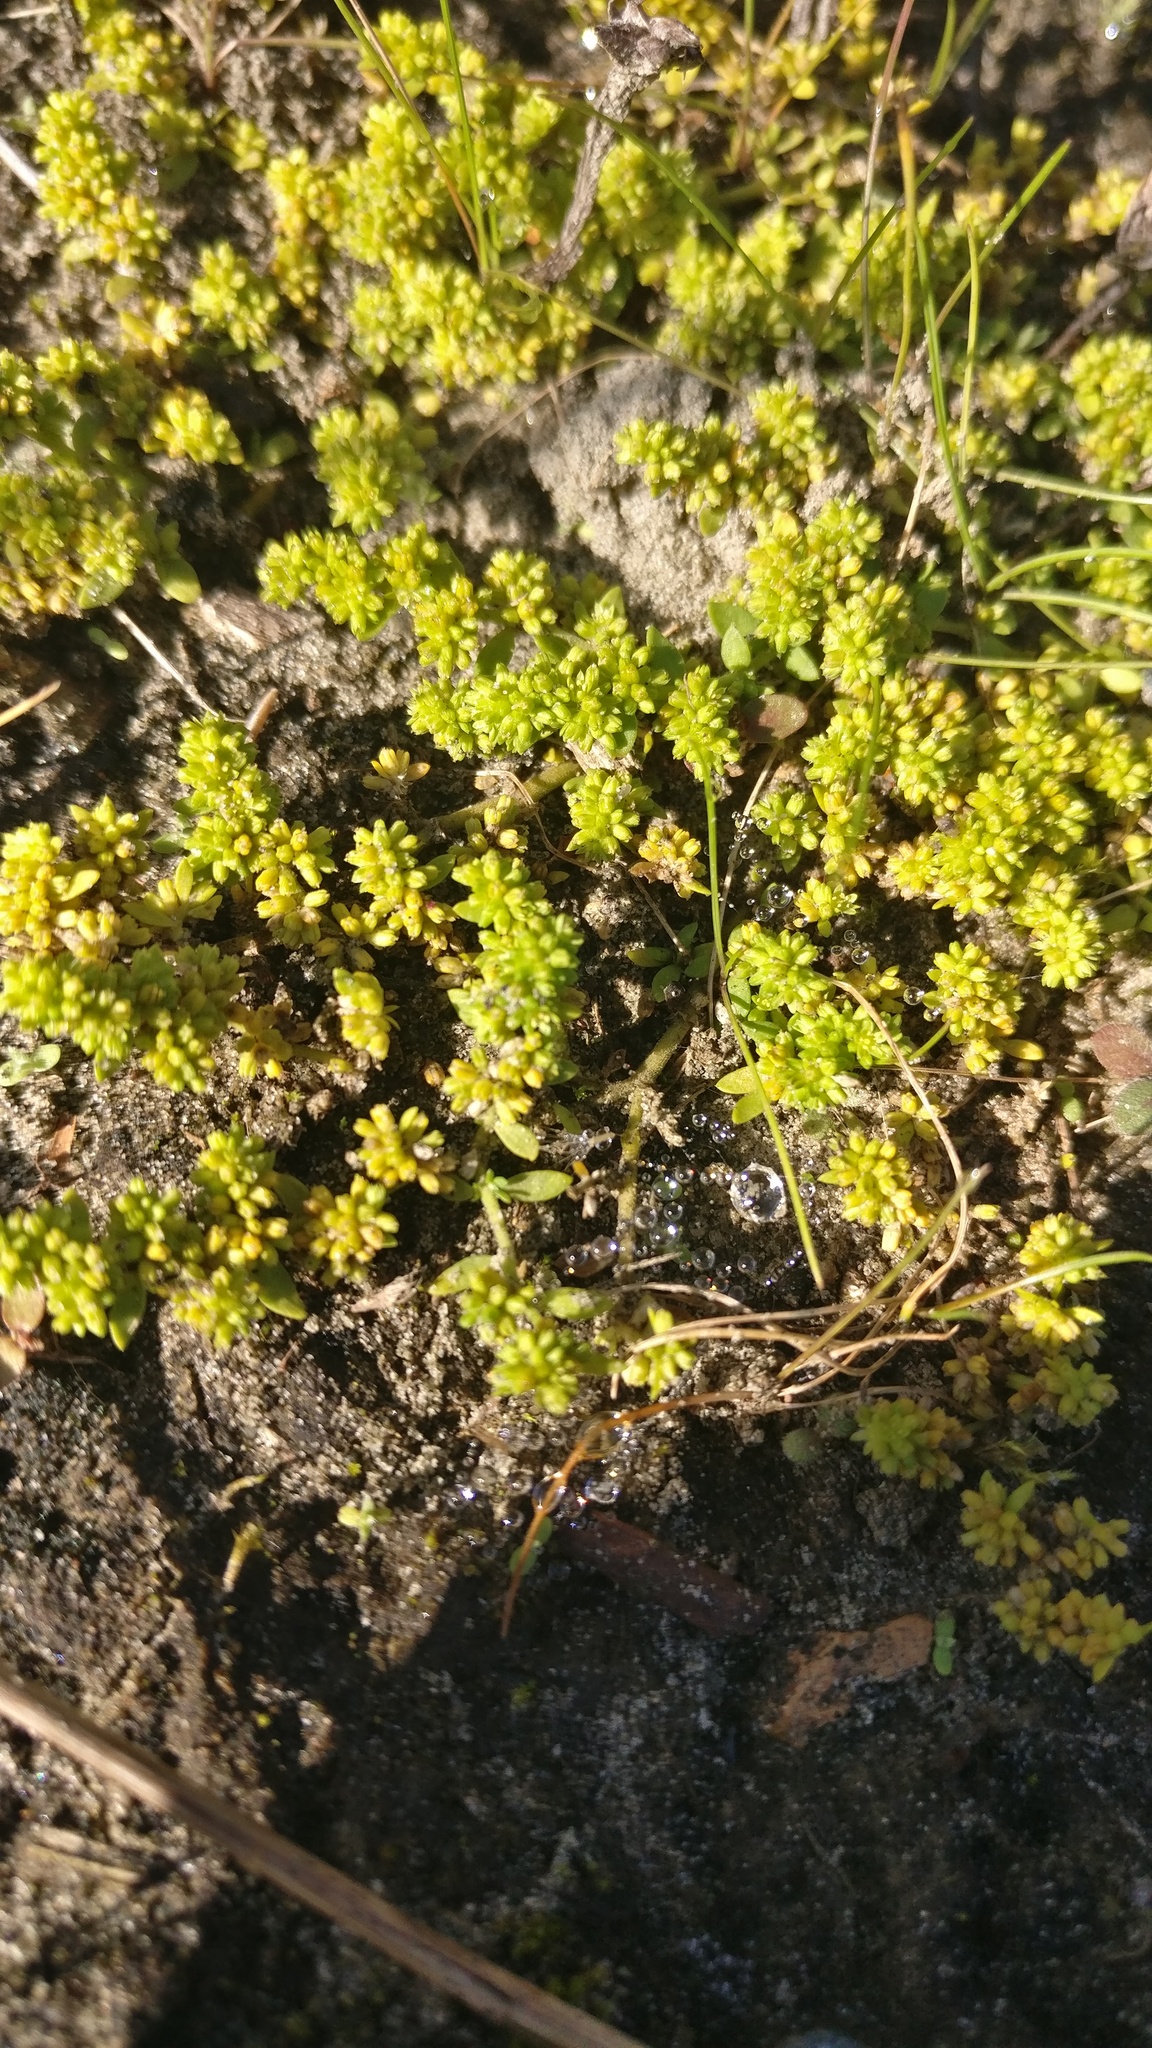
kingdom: Plantae
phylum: Tracheophyta
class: Magnoliopsida
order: Caryophyllales
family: Caryophyllaceae
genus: Herniaria
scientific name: Herniaria glabra
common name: Smooth rupturewort
